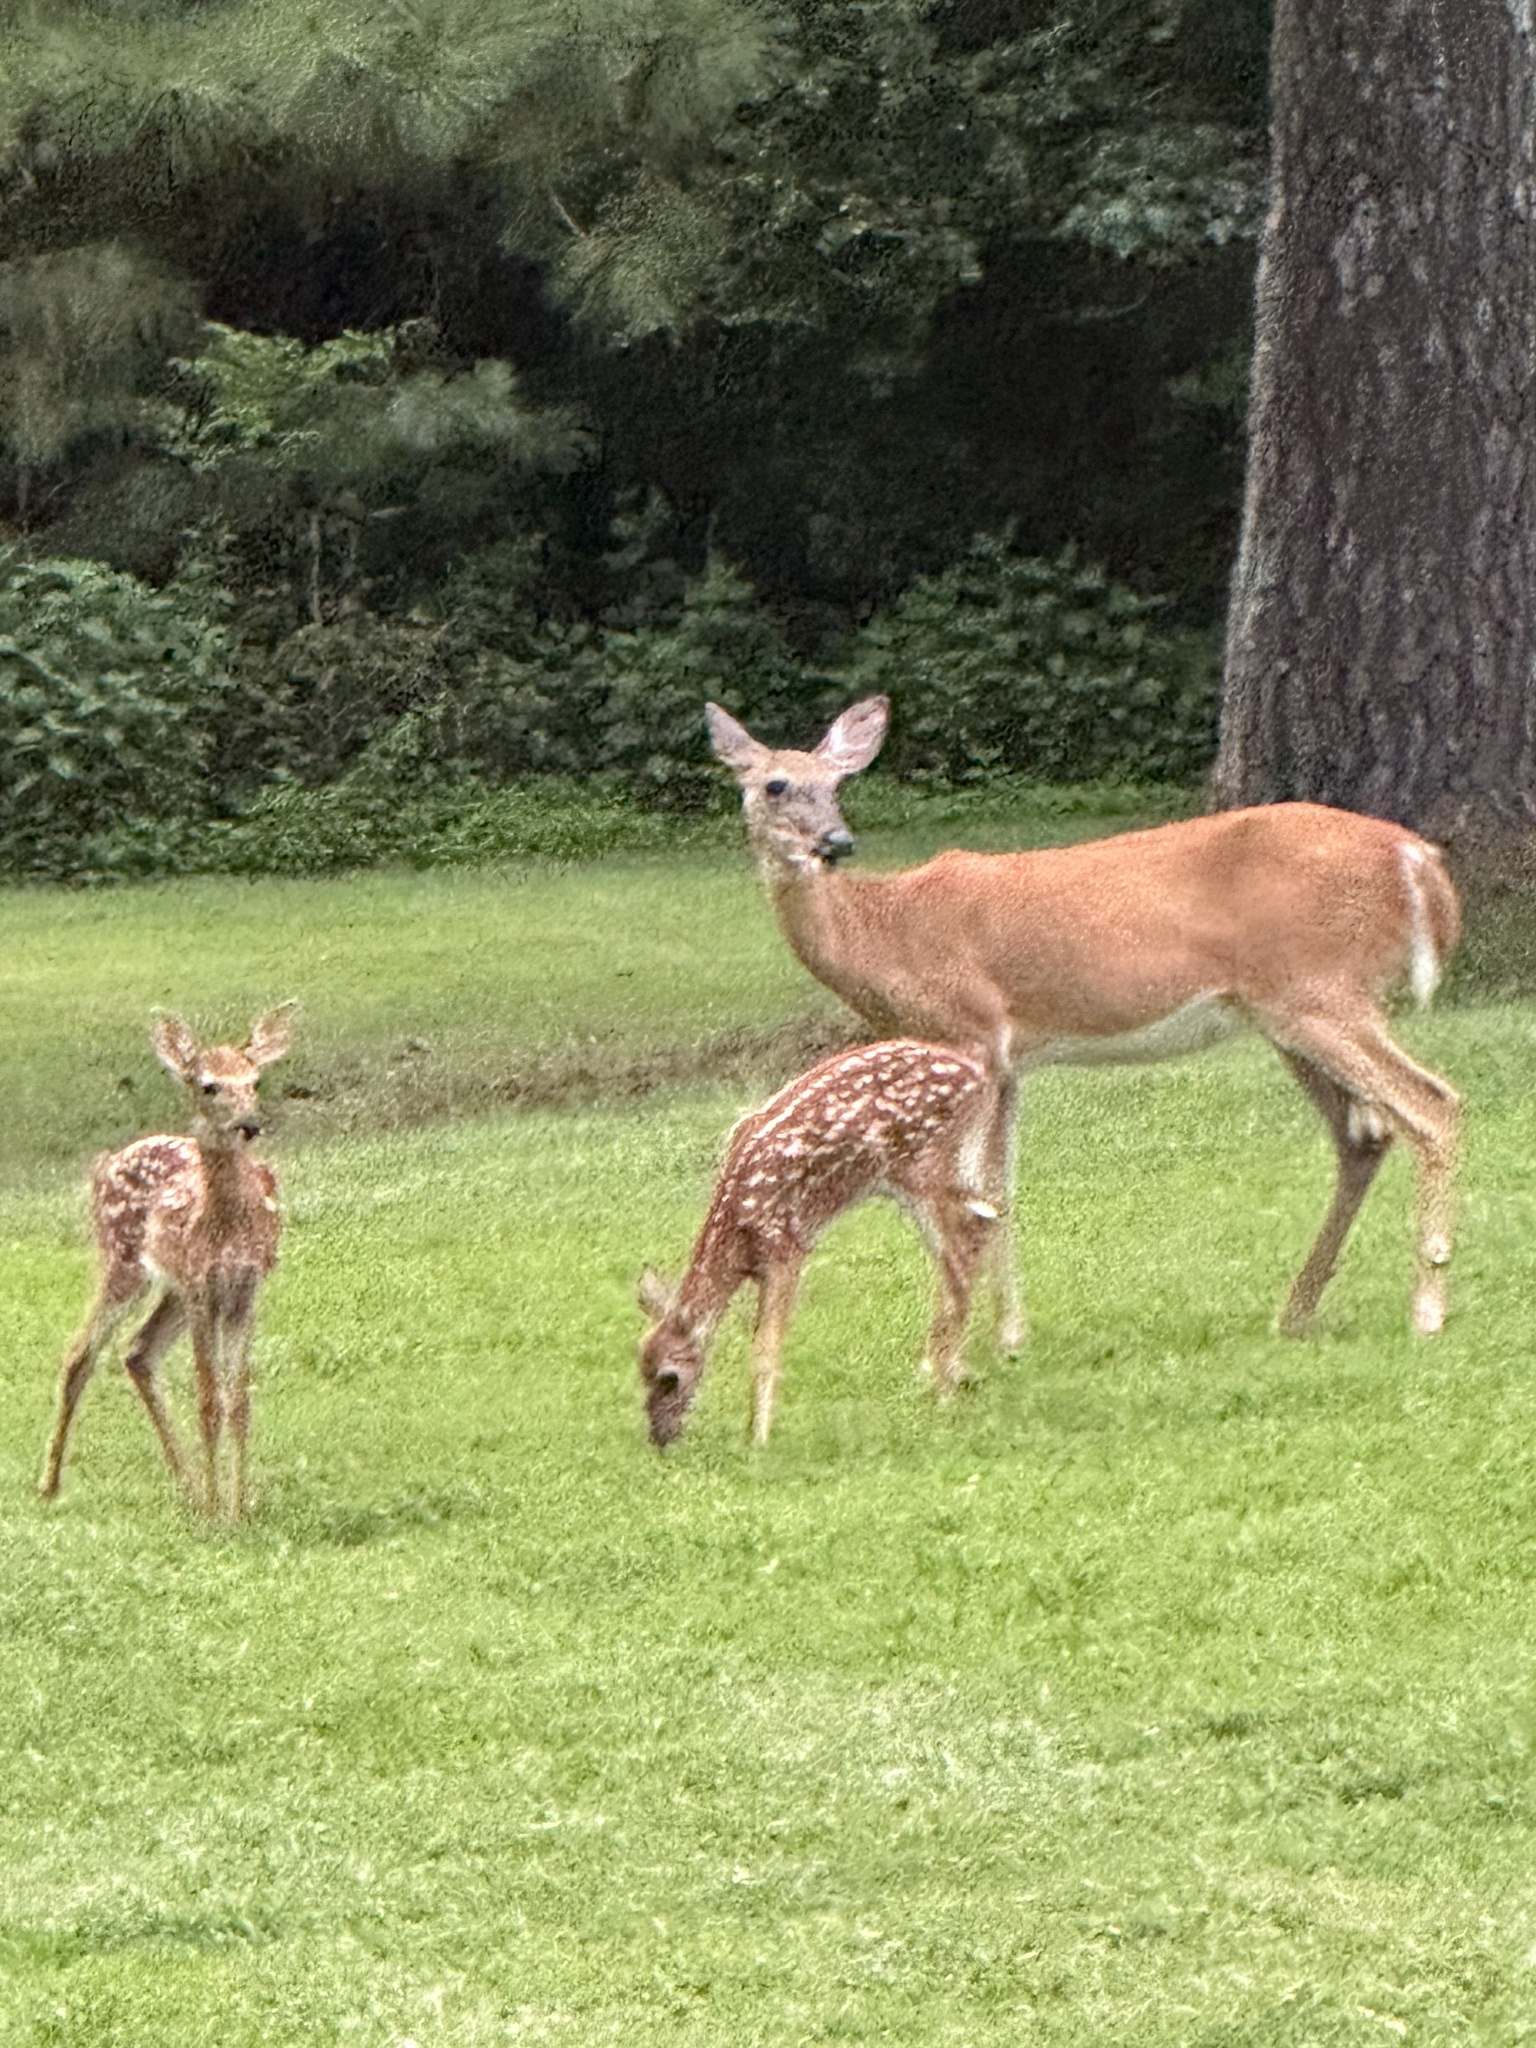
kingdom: Animalia
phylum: Chordata
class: Mammalia
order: Artiodactyla
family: Cervidae
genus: Odocoileus
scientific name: Odocoileus virginianus
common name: White-tailed deer
